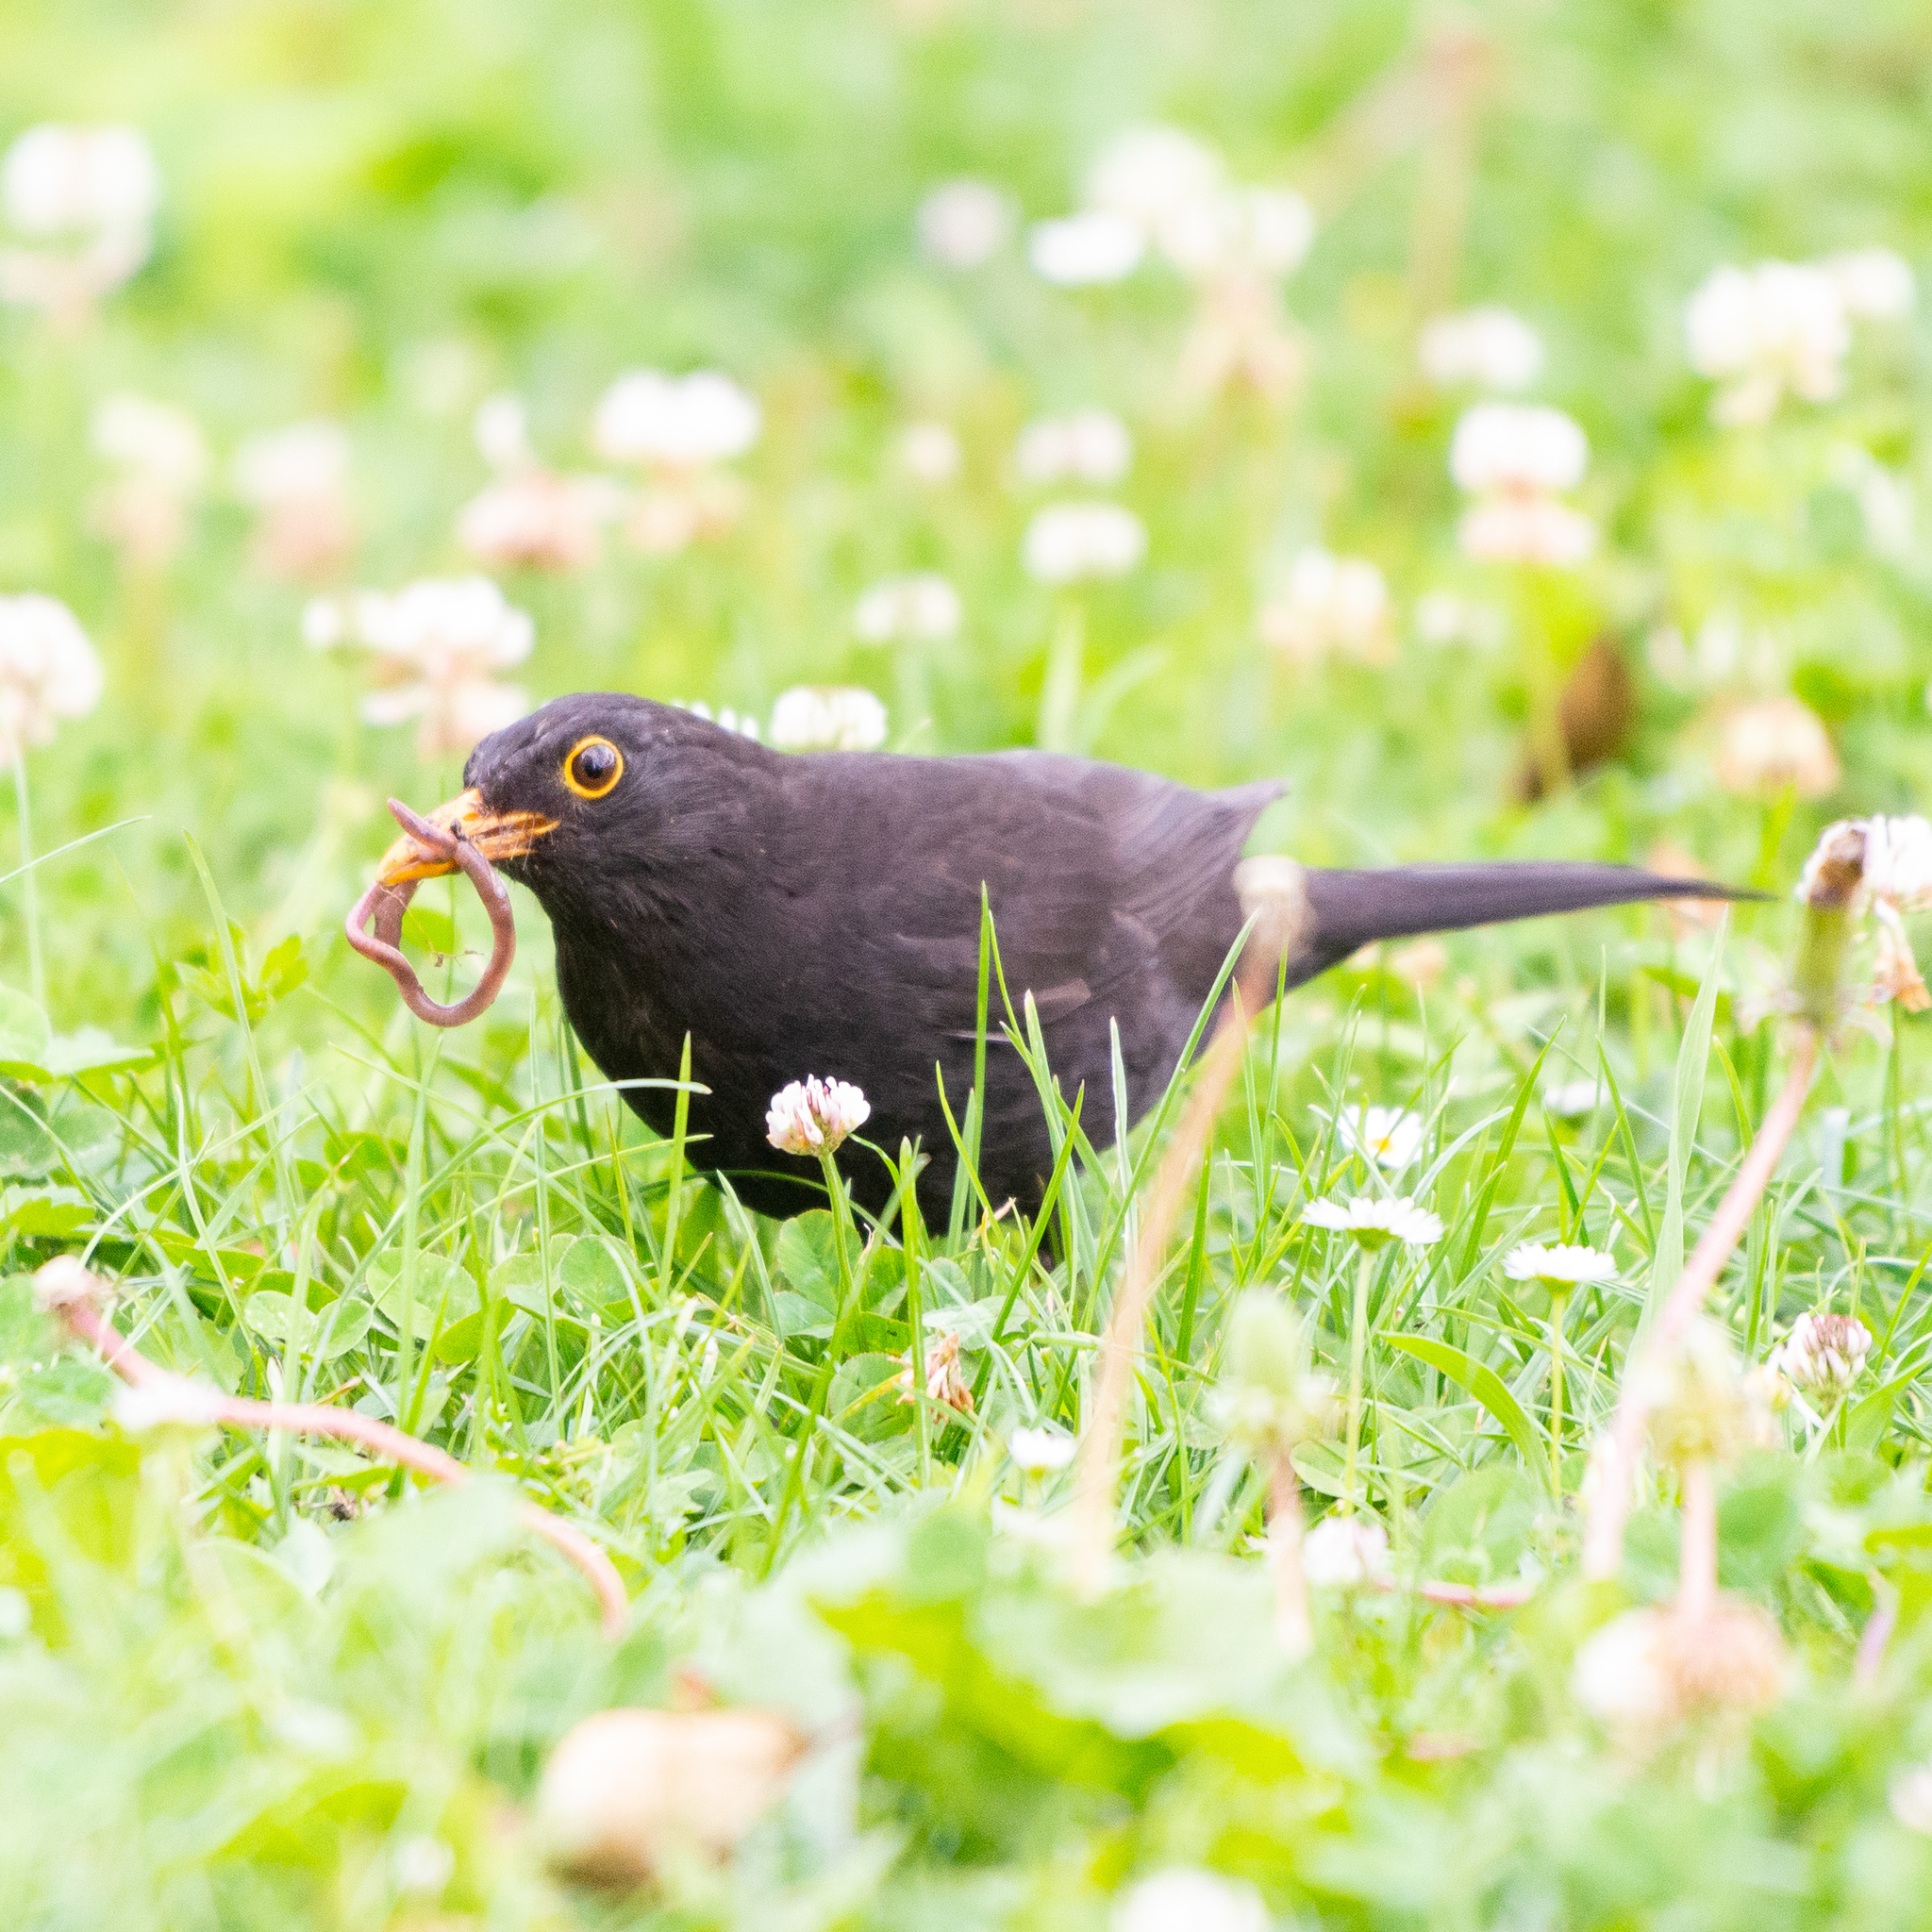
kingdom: Animalia
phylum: Chordata
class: Aves
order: Passeriformes
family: Turdidae
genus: Turdus
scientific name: Turdus merula
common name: Common blackbird
